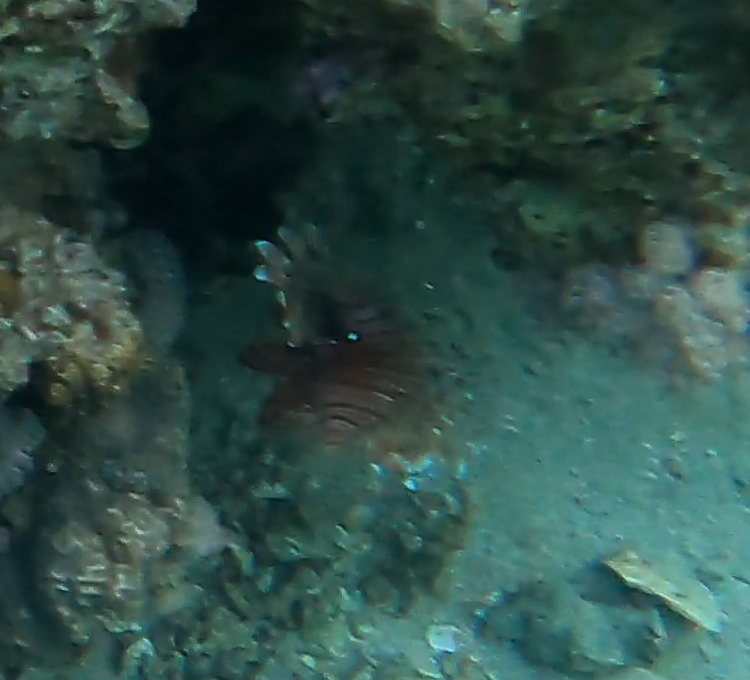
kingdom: Animalia
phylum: Chordata
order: Scorpaeniformes
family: Scorpaenidae
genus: Pterois
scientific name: Pterois miles
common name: Devil firefish
